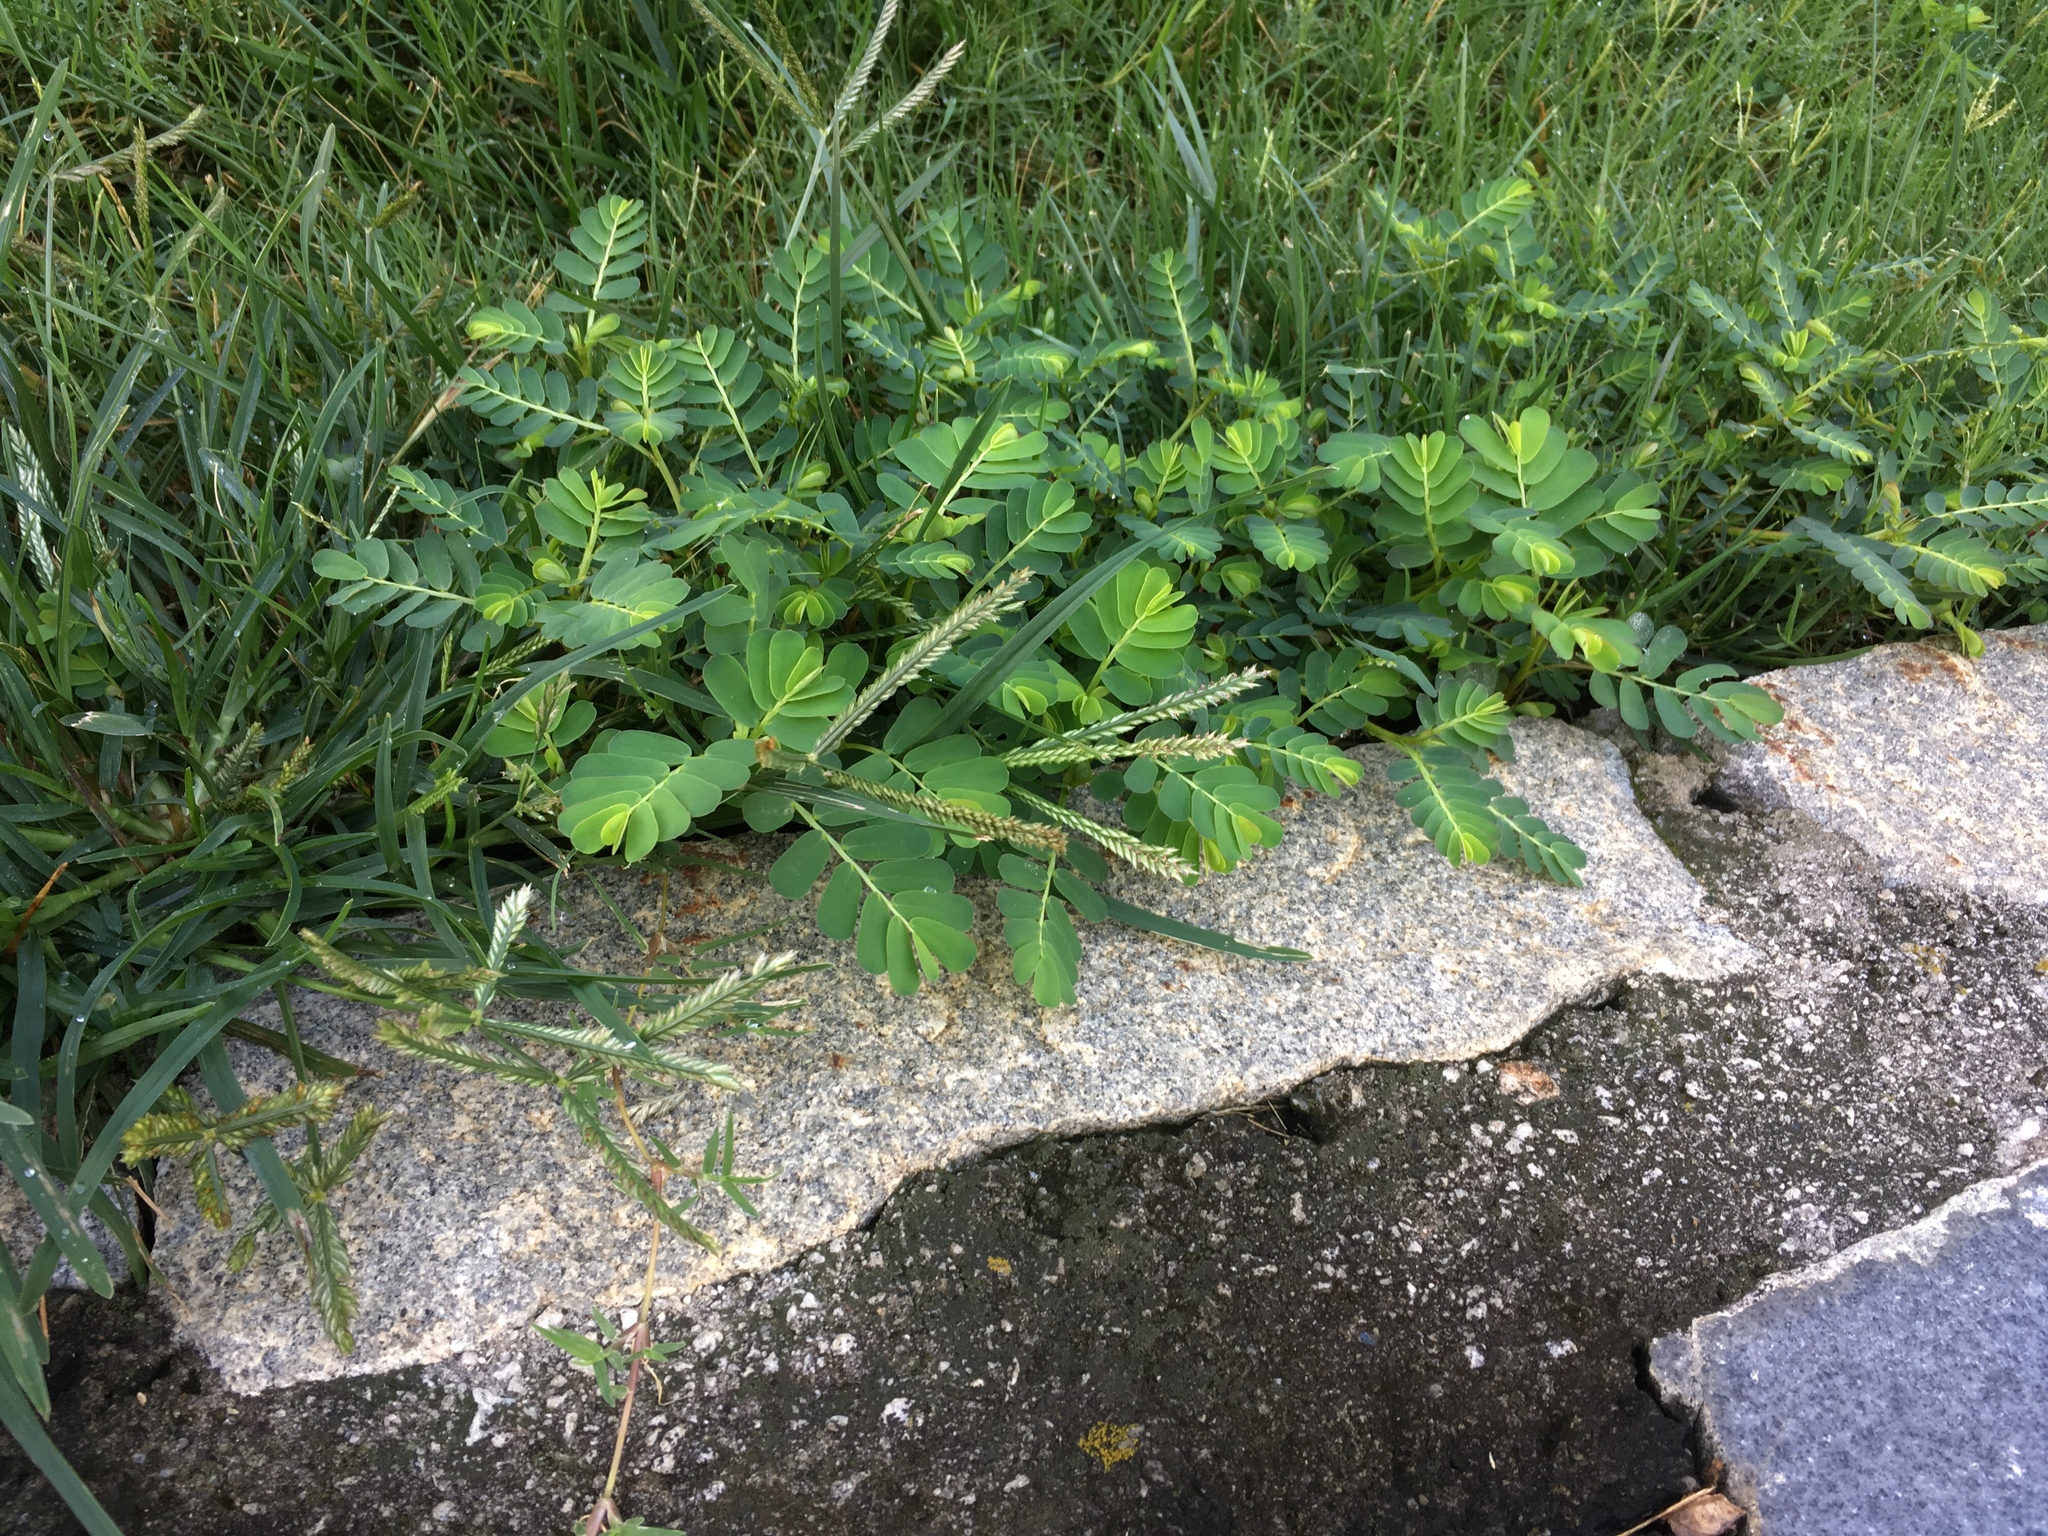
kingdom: Plantae
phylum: Tracheophyta
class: Magnoliopsida
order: Malpighiales
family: Phyllanthaceae
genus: Phyllanthus
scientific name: Phyllanthus urinaria
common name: Chamber bitter
